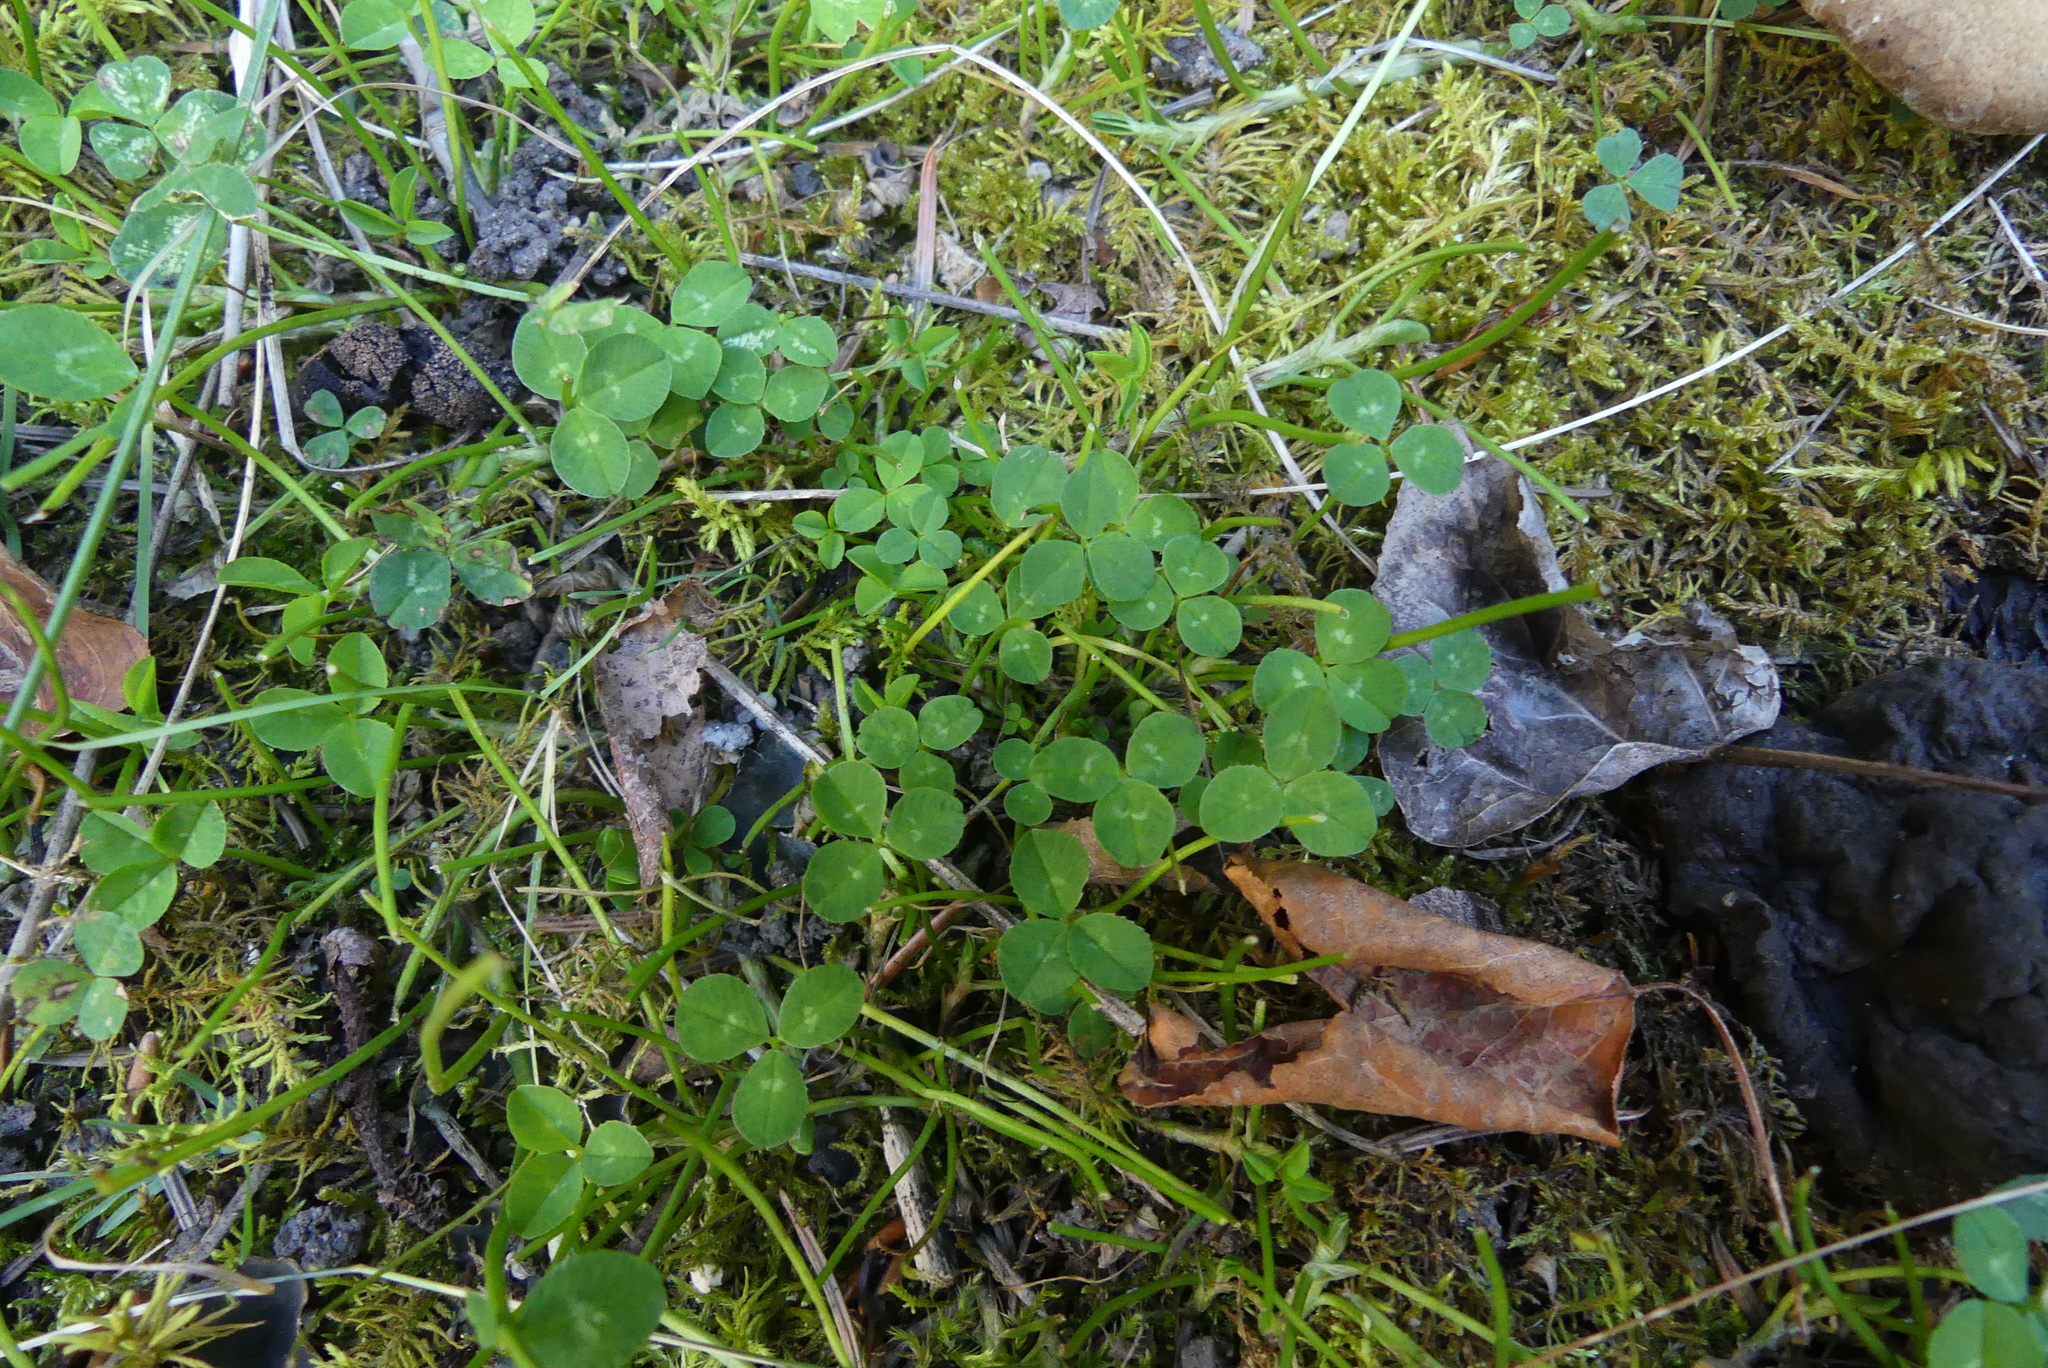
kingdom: Plantae
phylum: Tracheophyta
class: Magnoliopsida
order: Fabales
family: Fabaceae
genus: Trifolium
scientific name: Trifolium repens
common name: White clover
